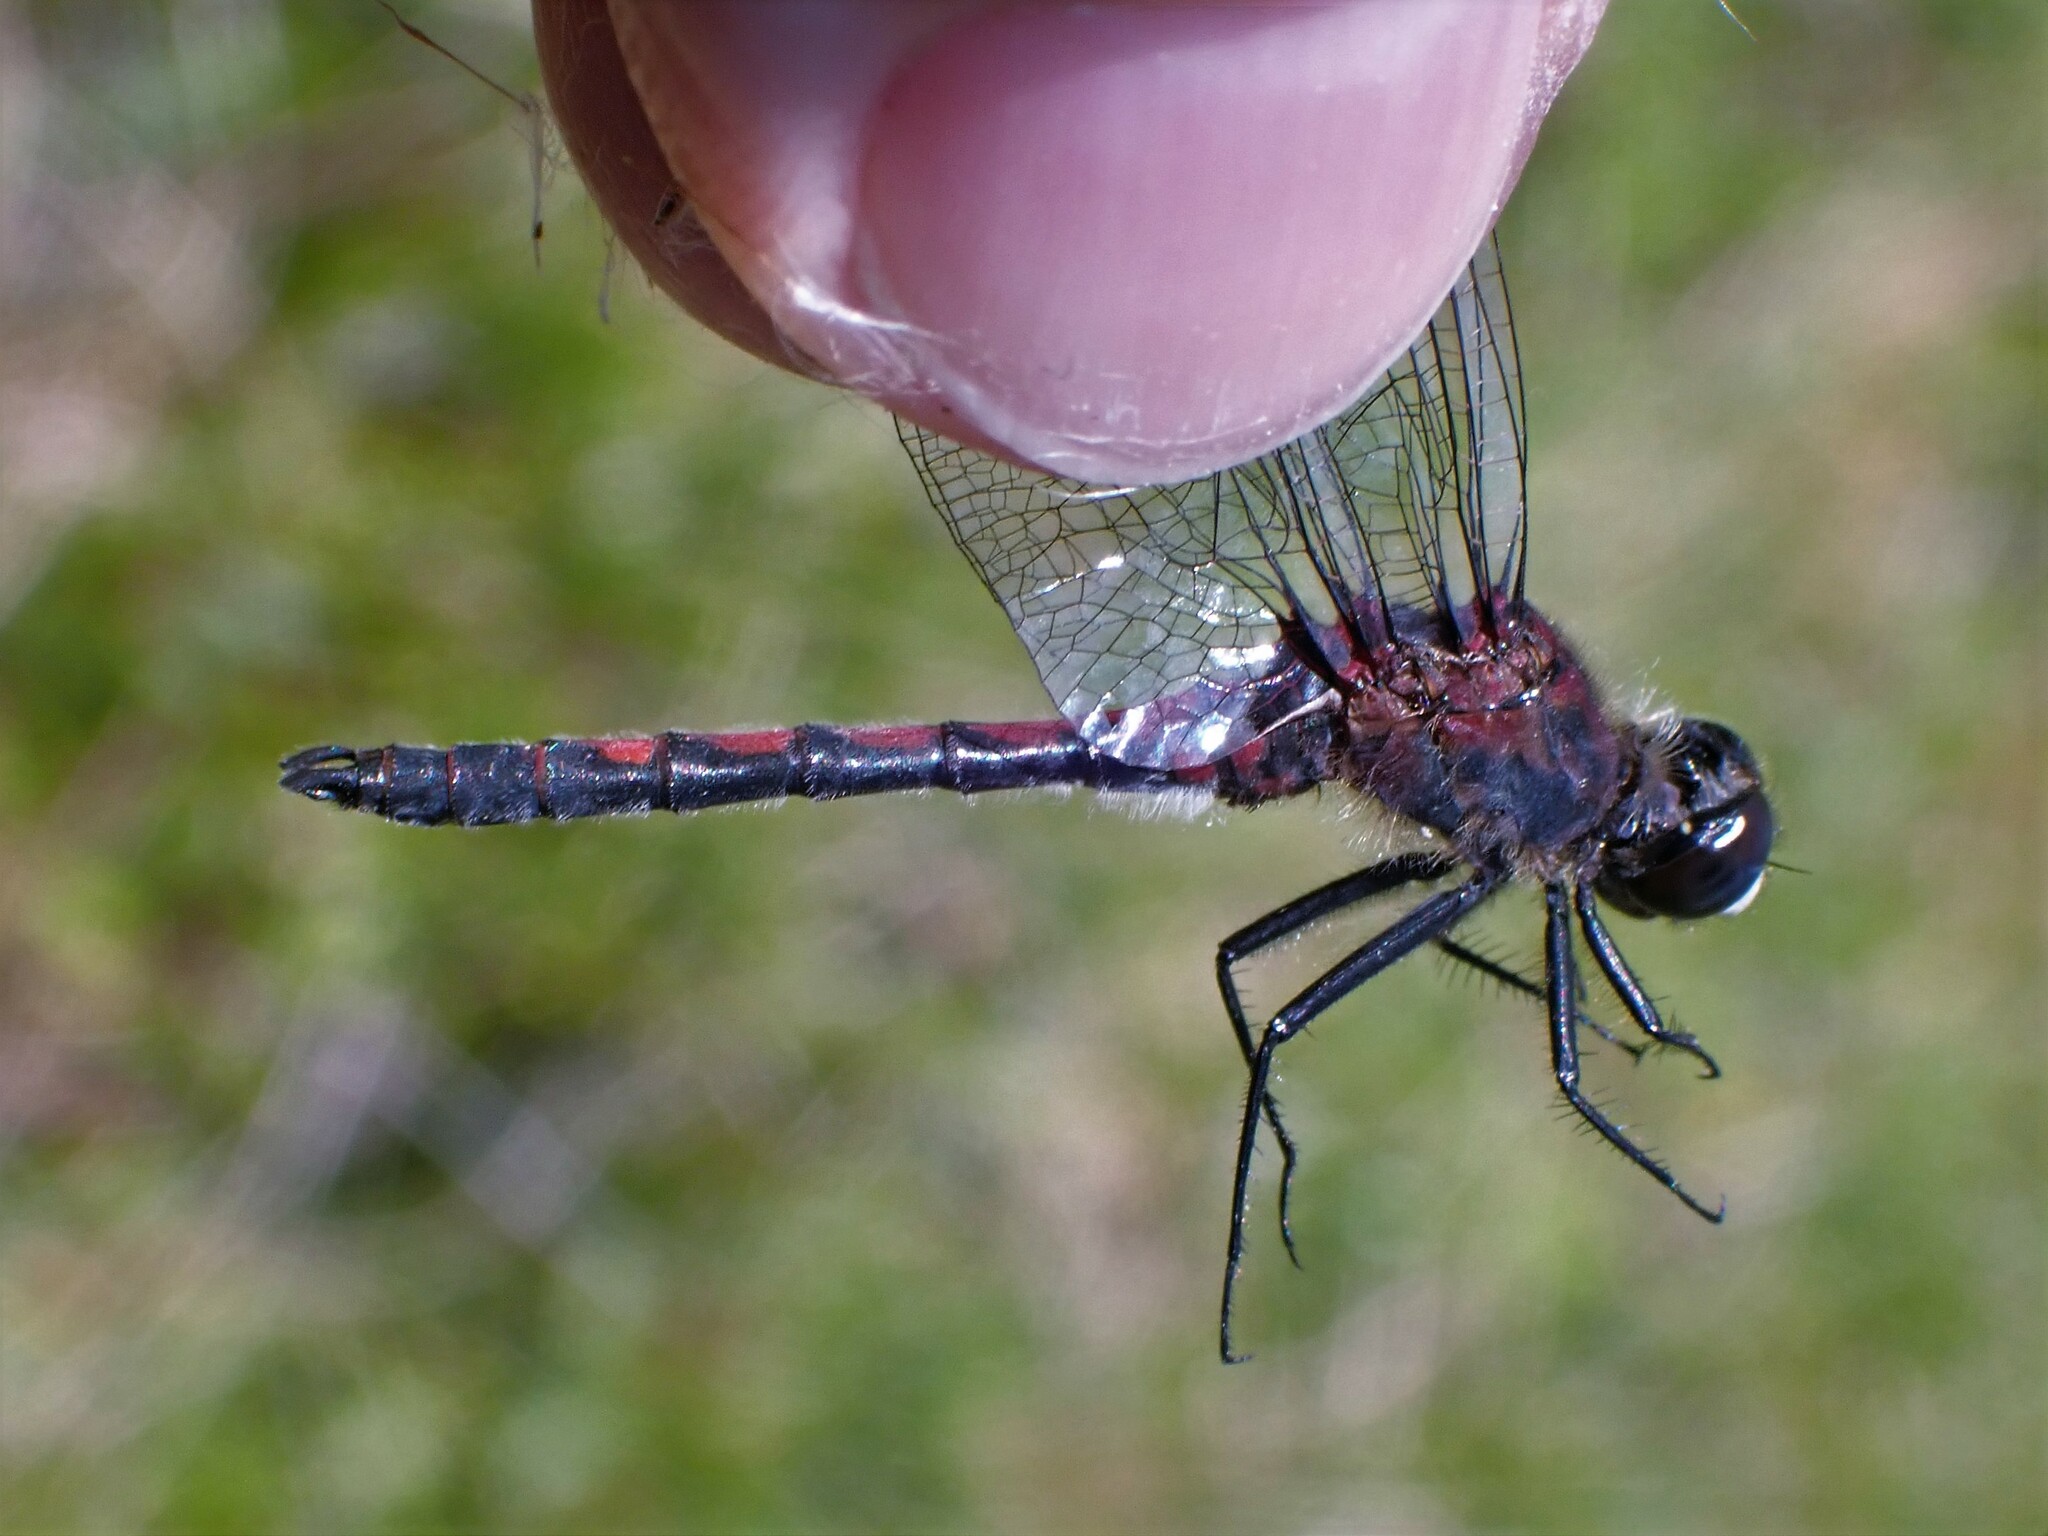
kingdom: Animalia
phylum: Arthropoda
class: Insecta
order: Odonata
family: Libellulidae
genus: Leucorrhinia
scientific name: Leucorrhinia hudsonica
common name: Hudsonian whiteface
